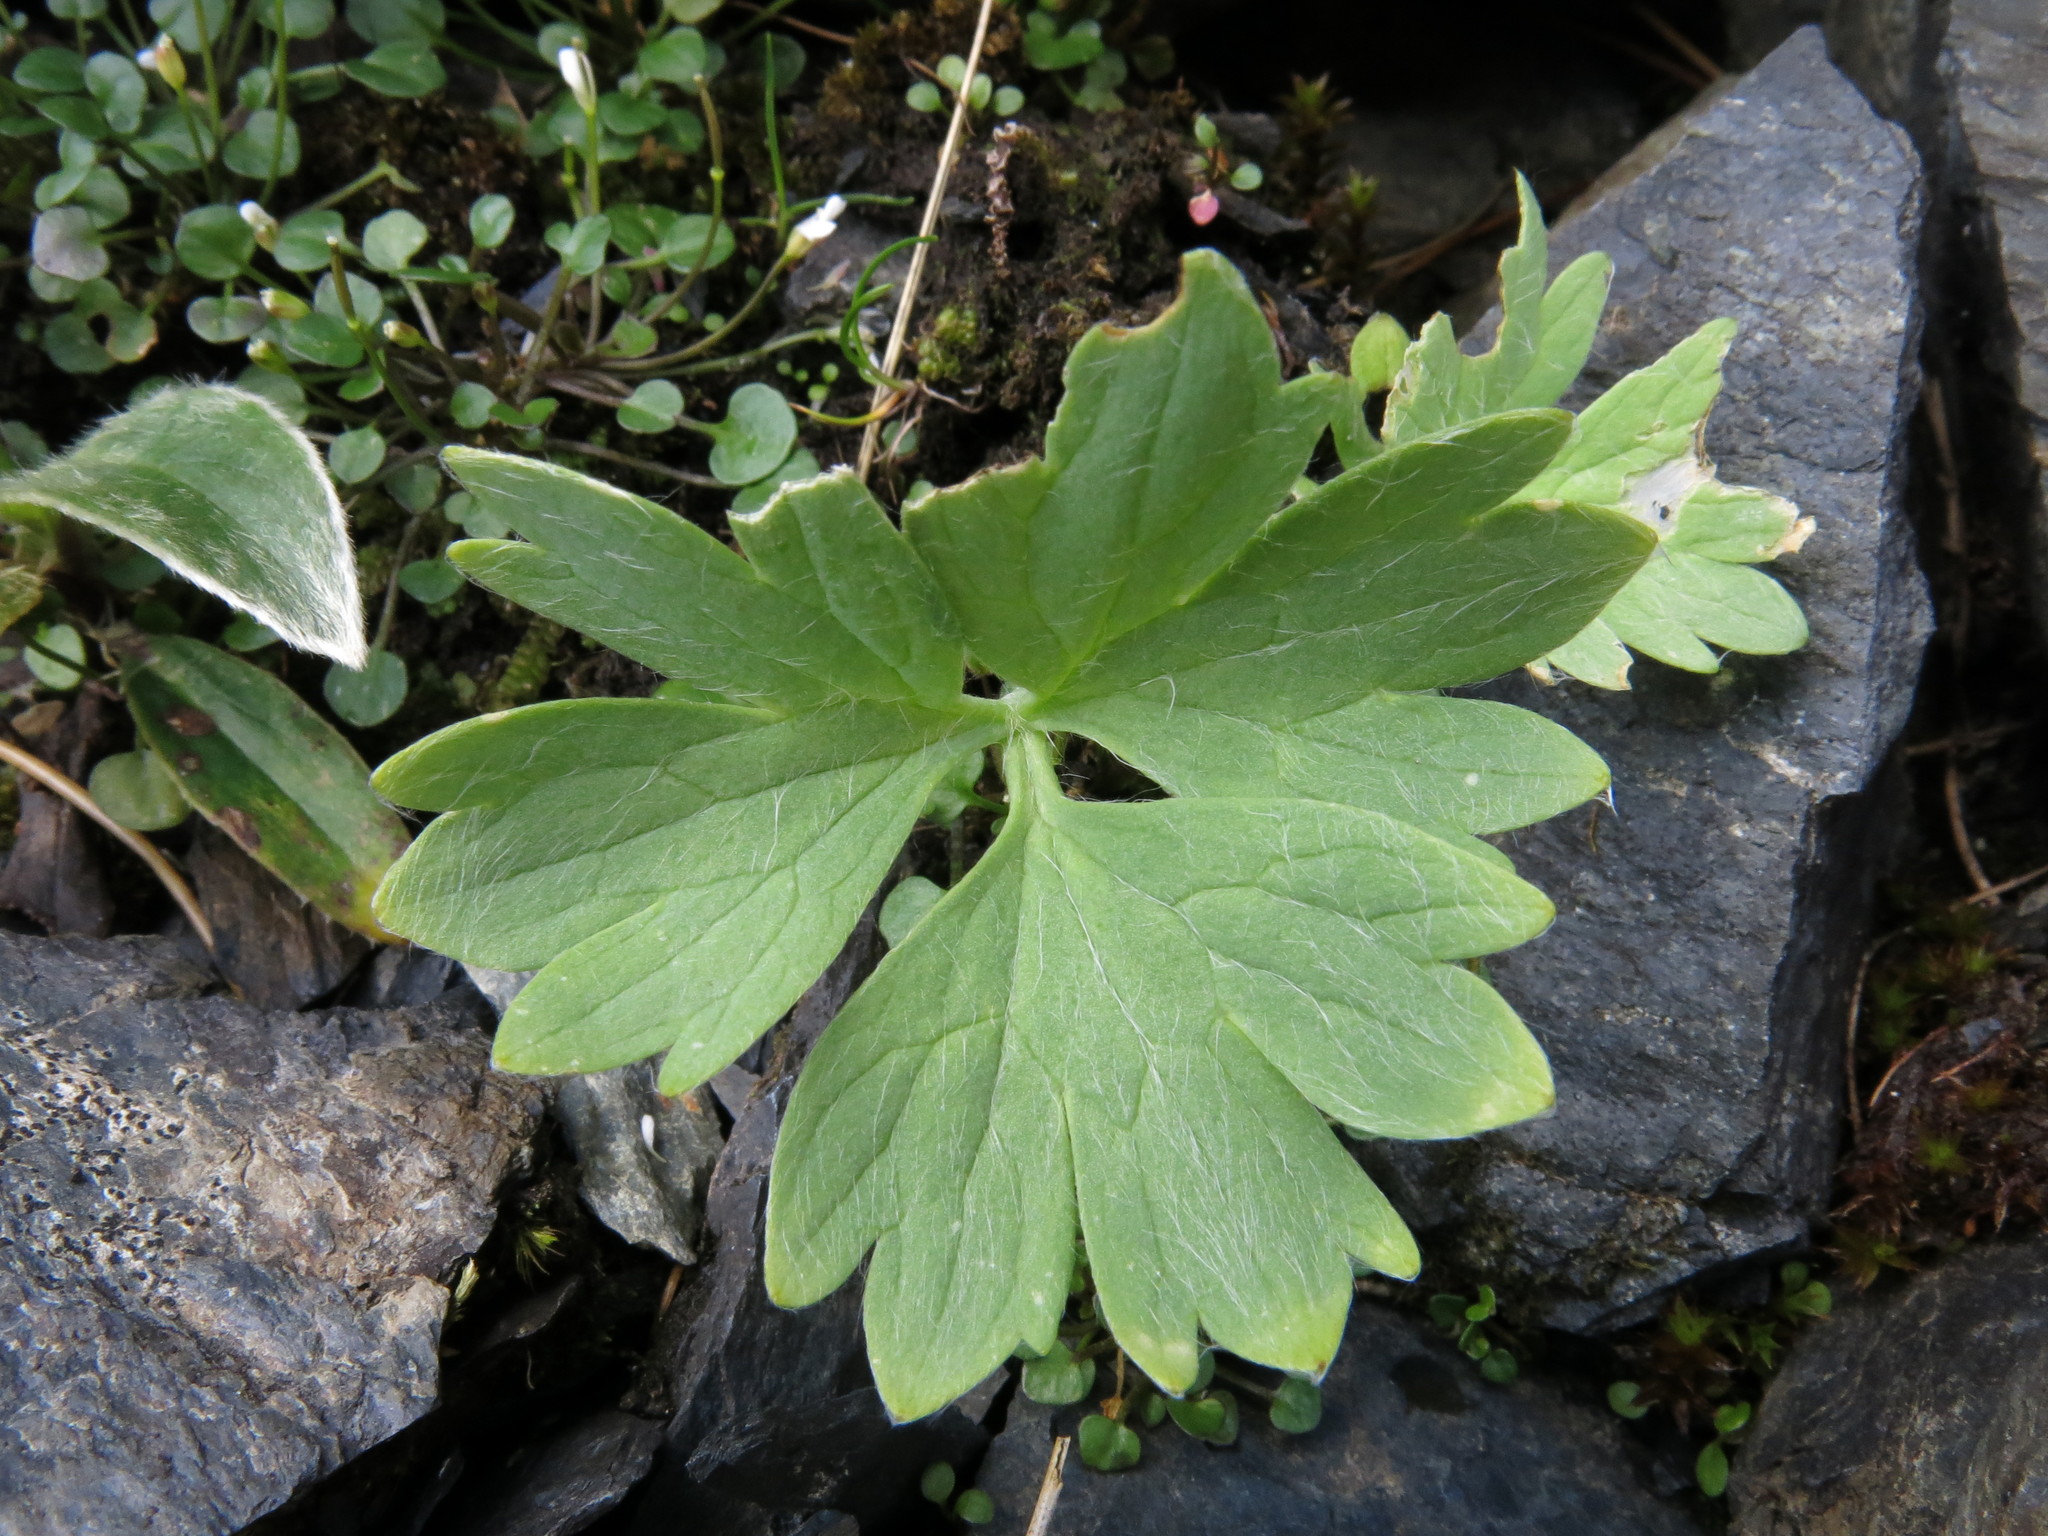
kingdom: Plantae
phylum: Tracheophyta
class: Magnoliopsida
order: Ranunculales
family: Ranunculaceae
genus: Ranunculus
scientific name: Ranunculus buchananii
